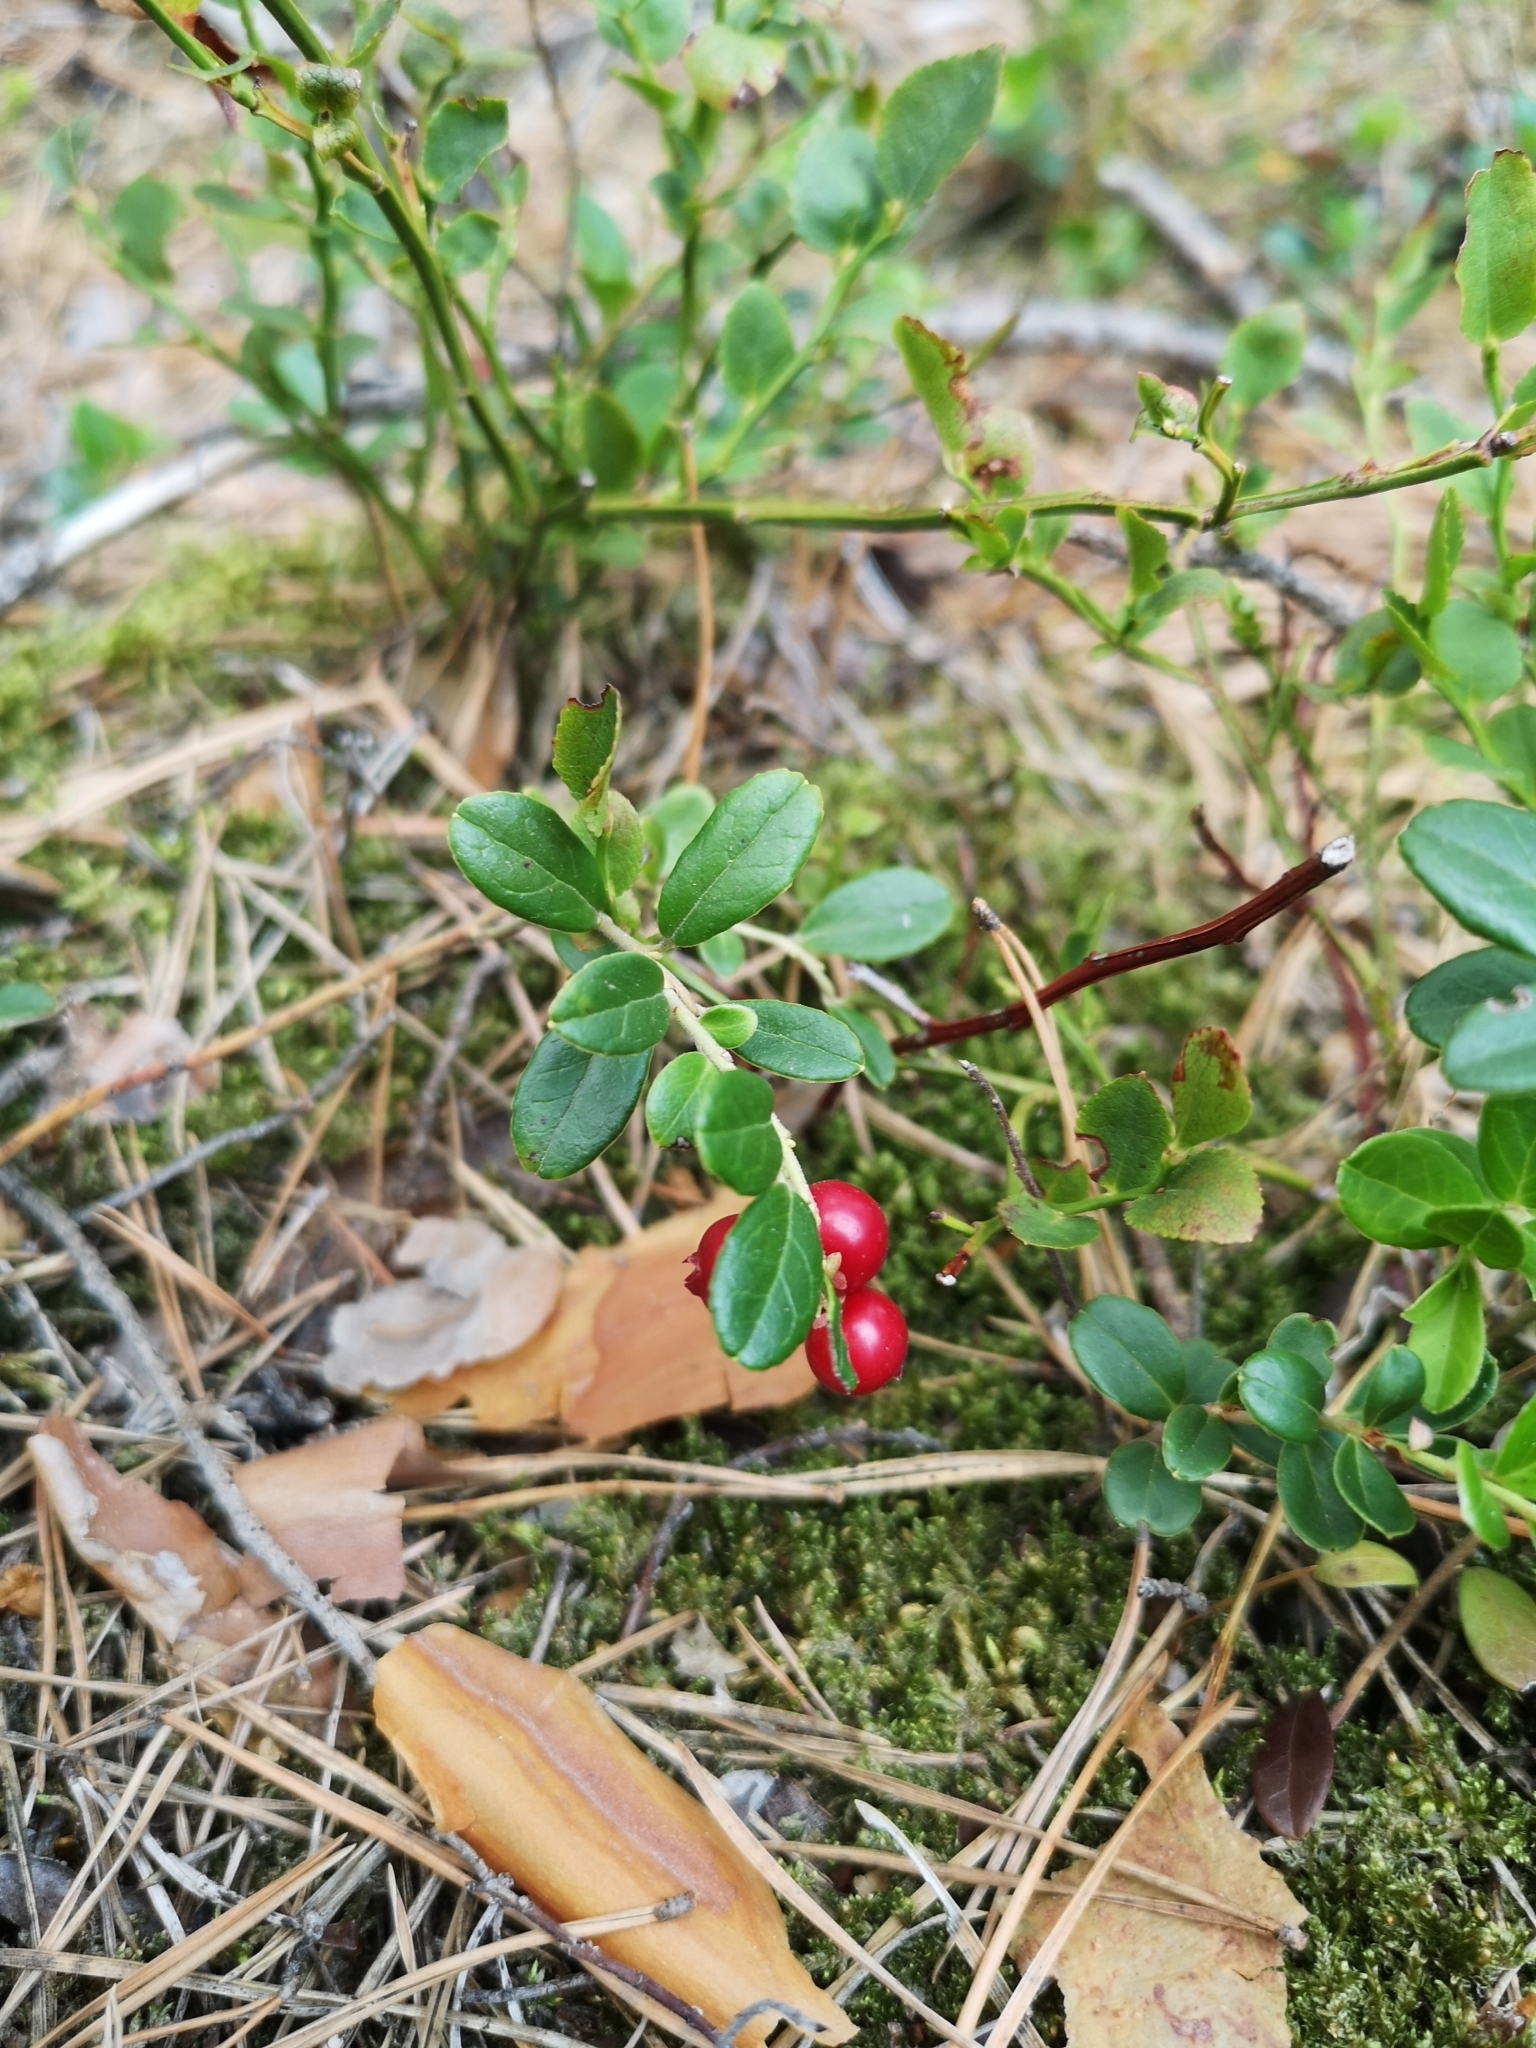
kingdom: Plantae
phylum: Tracheophyta
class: Magnoliopsida
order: Ericales
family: Ericaceae
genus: Vaccinium
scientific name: Vaccinium vitis-idaea
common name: Cowberry
